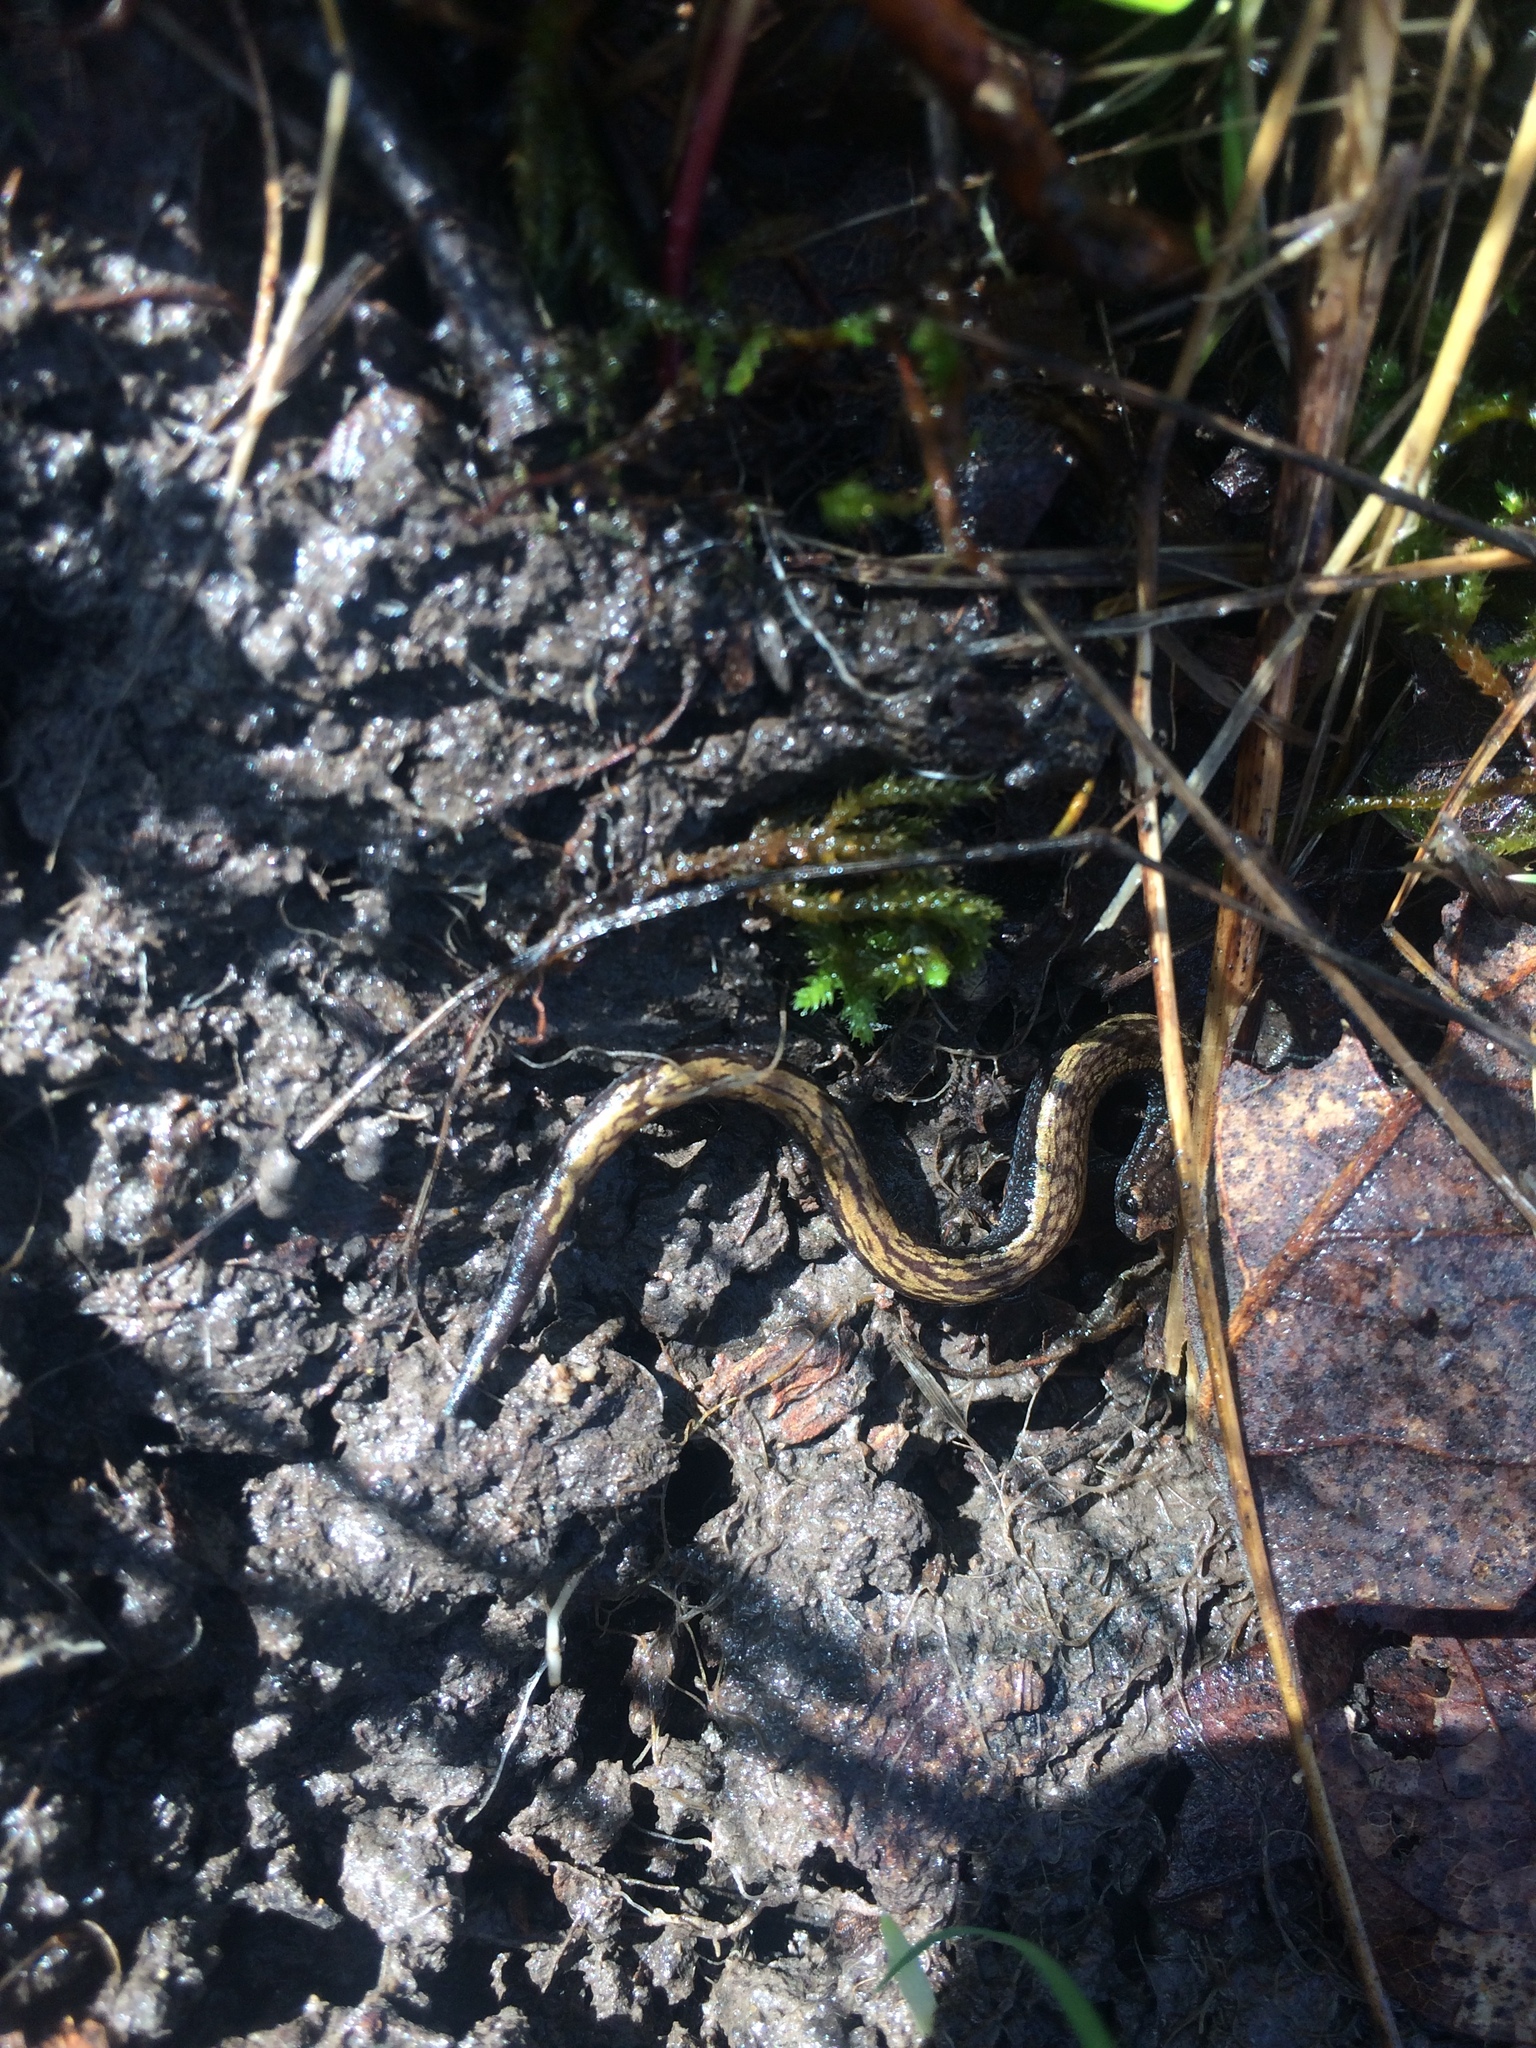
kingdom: Animalia
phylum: Chordata
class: Amphibia
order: Caudata
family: Plethodontidae
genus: Batrachoseps
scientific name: Batrachoseps attenuatus
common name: California slender salamander
